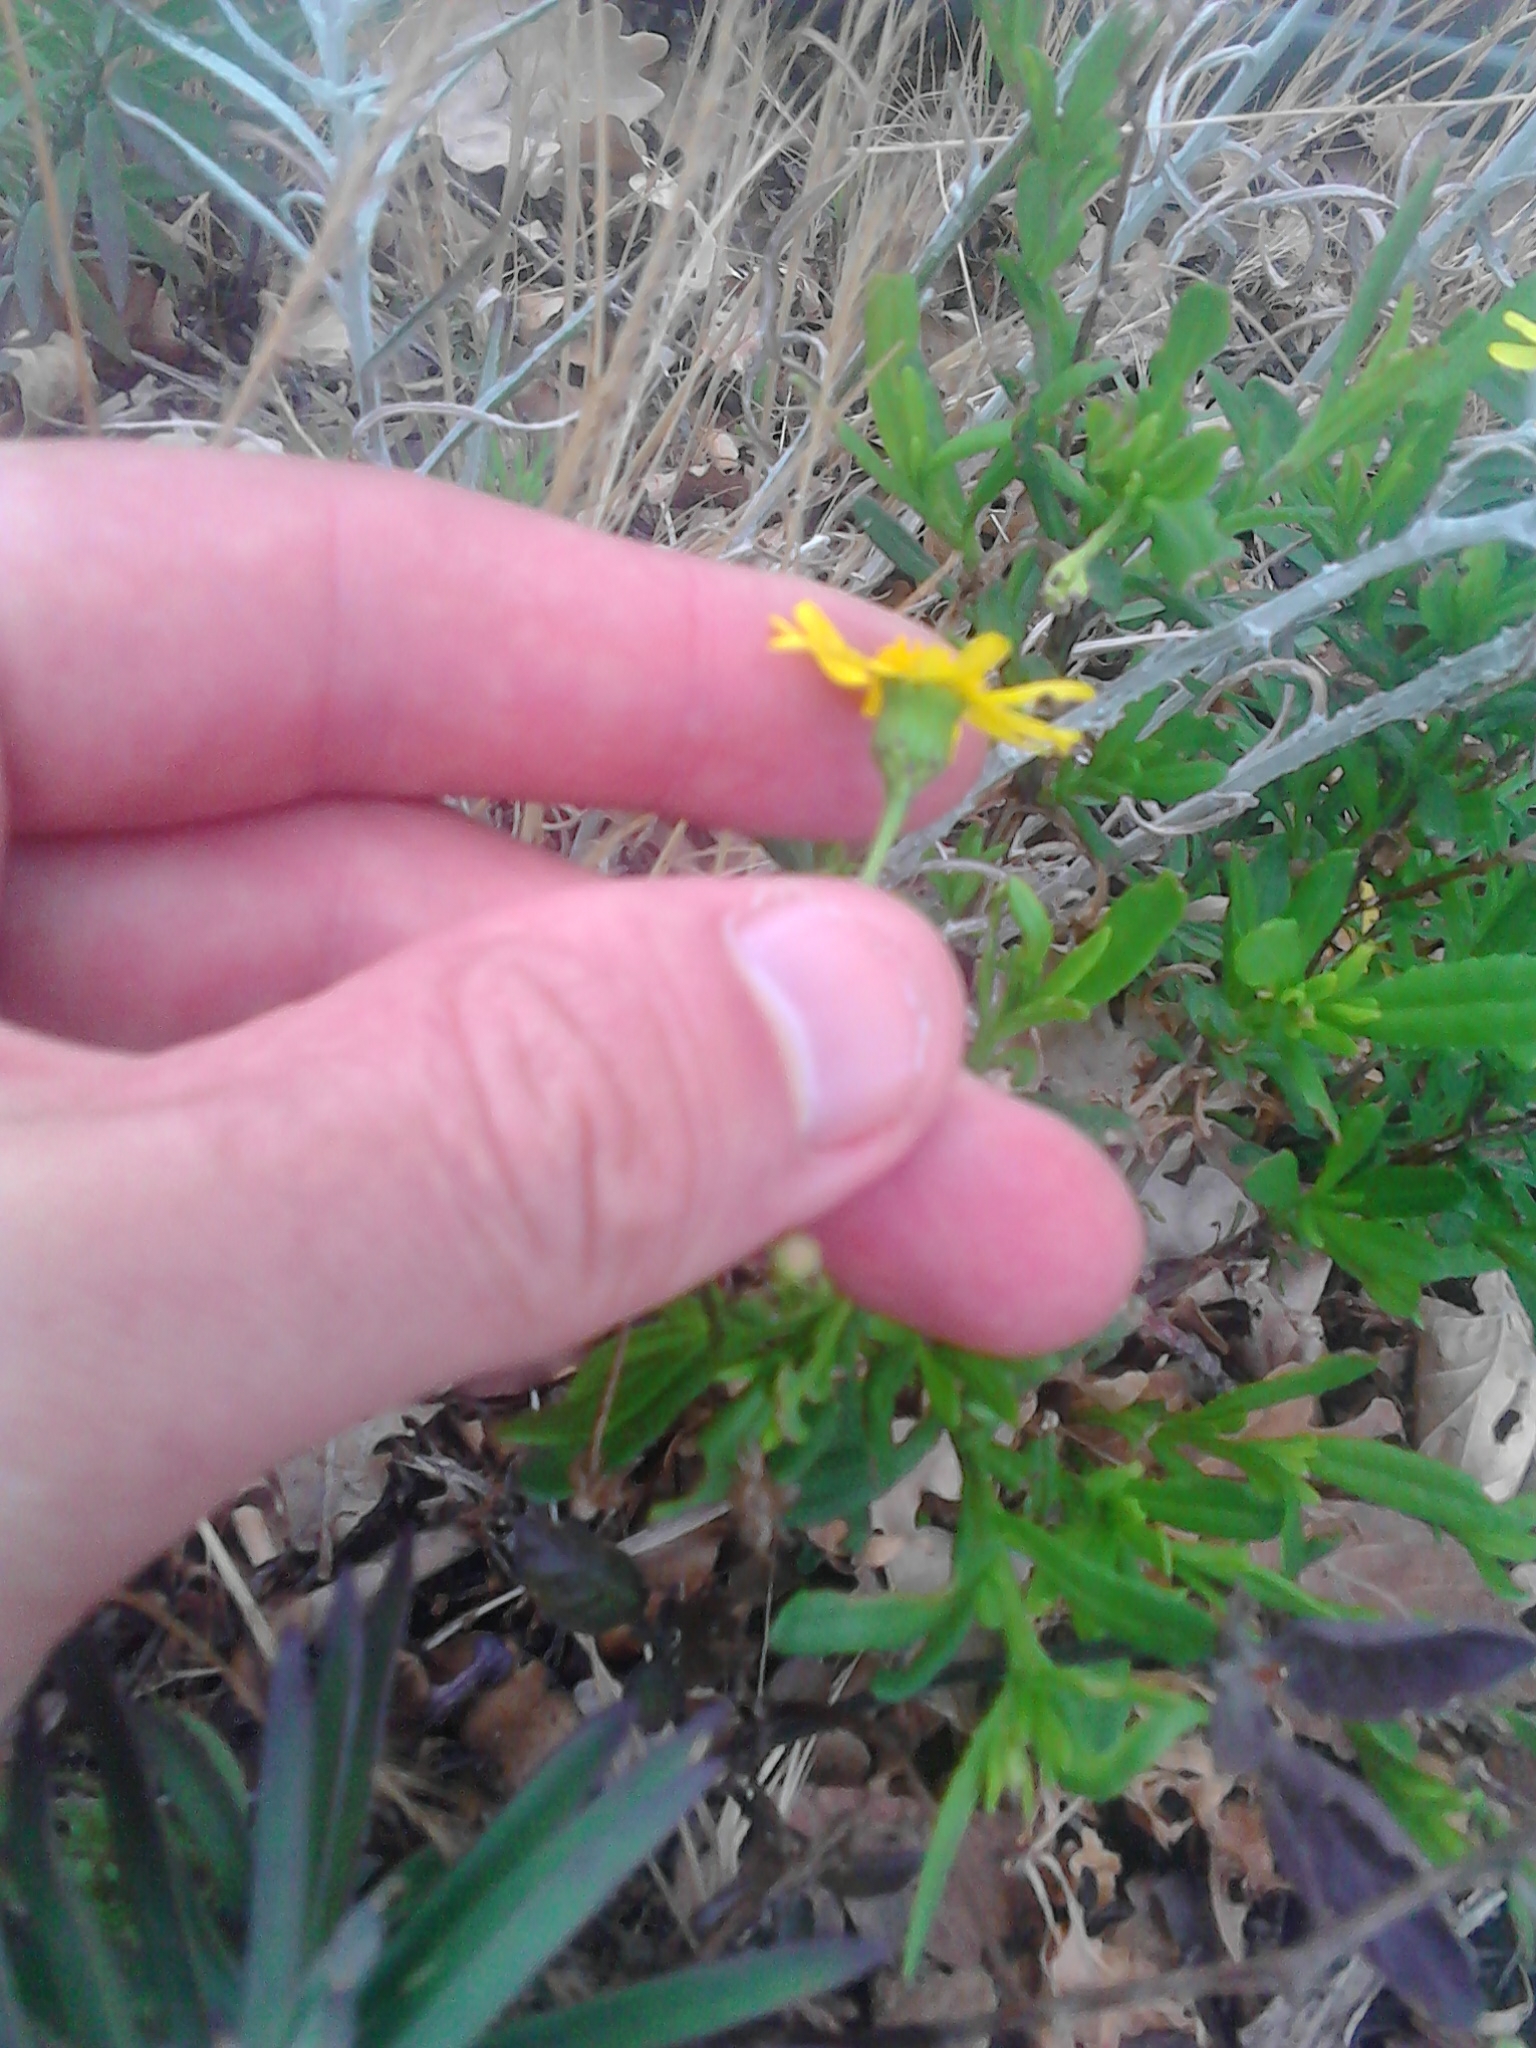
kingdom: Plantae
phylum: Tracheophyta
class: Magnoliopsida
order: Asterales
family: Asteraceae
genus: Senecio
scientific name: Senecio skirrhodon
